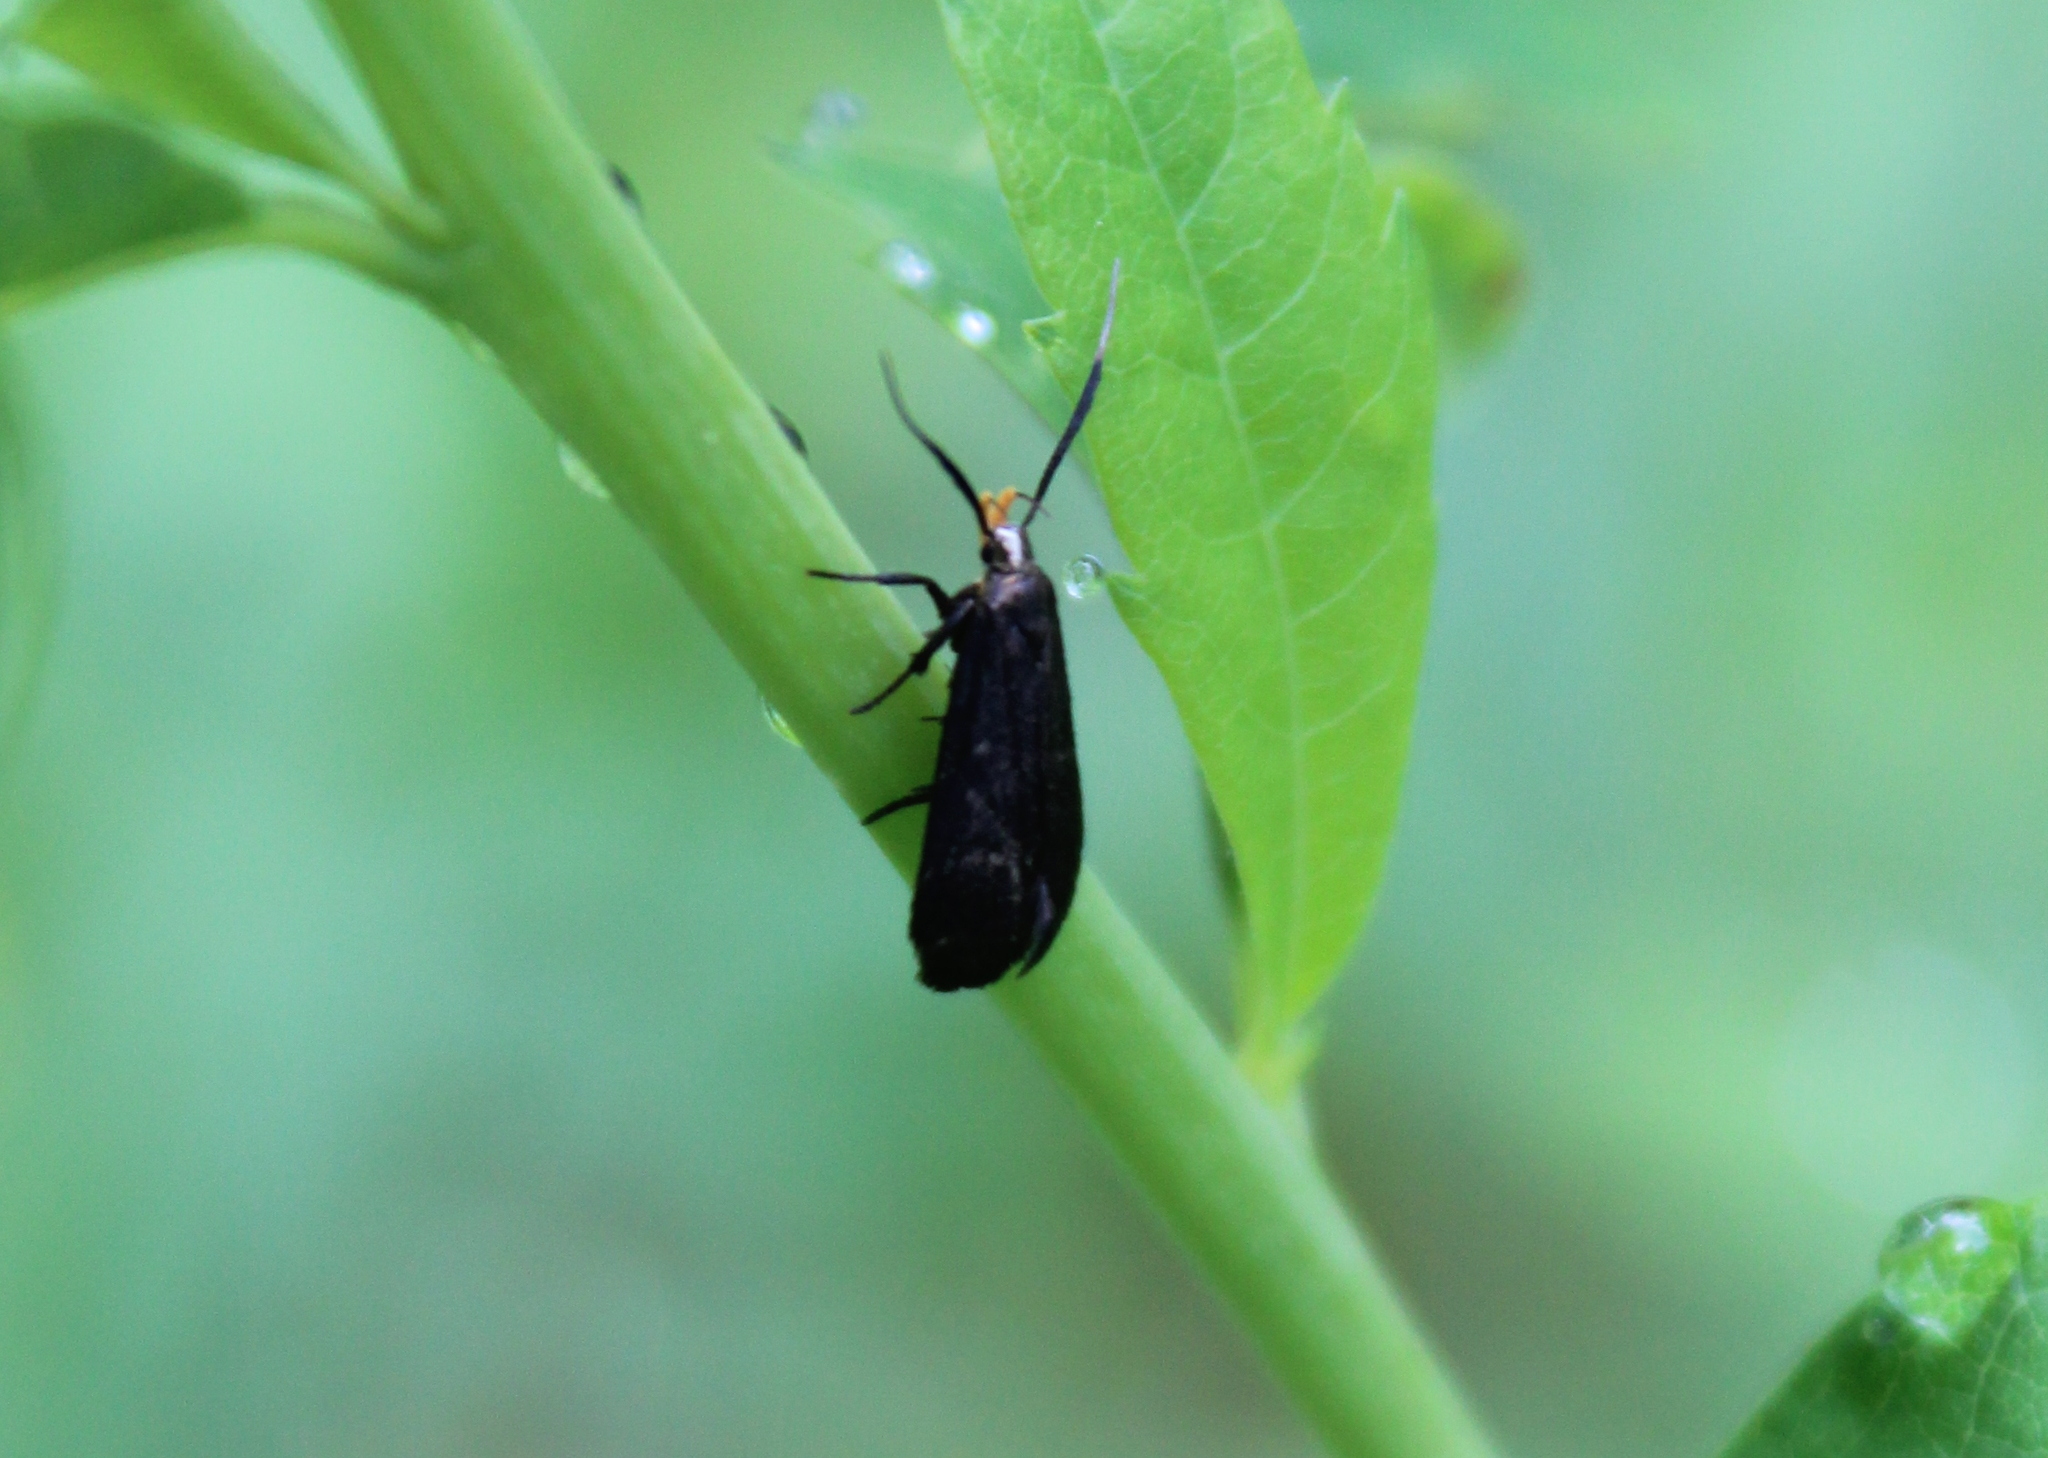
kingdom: Animalia
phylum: Arthropoda
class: Insecta
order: Lepidoptera
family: Gelechiidae
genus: Dichomeris
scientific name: Dichomeris nonstrigella
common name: Little devil moth
